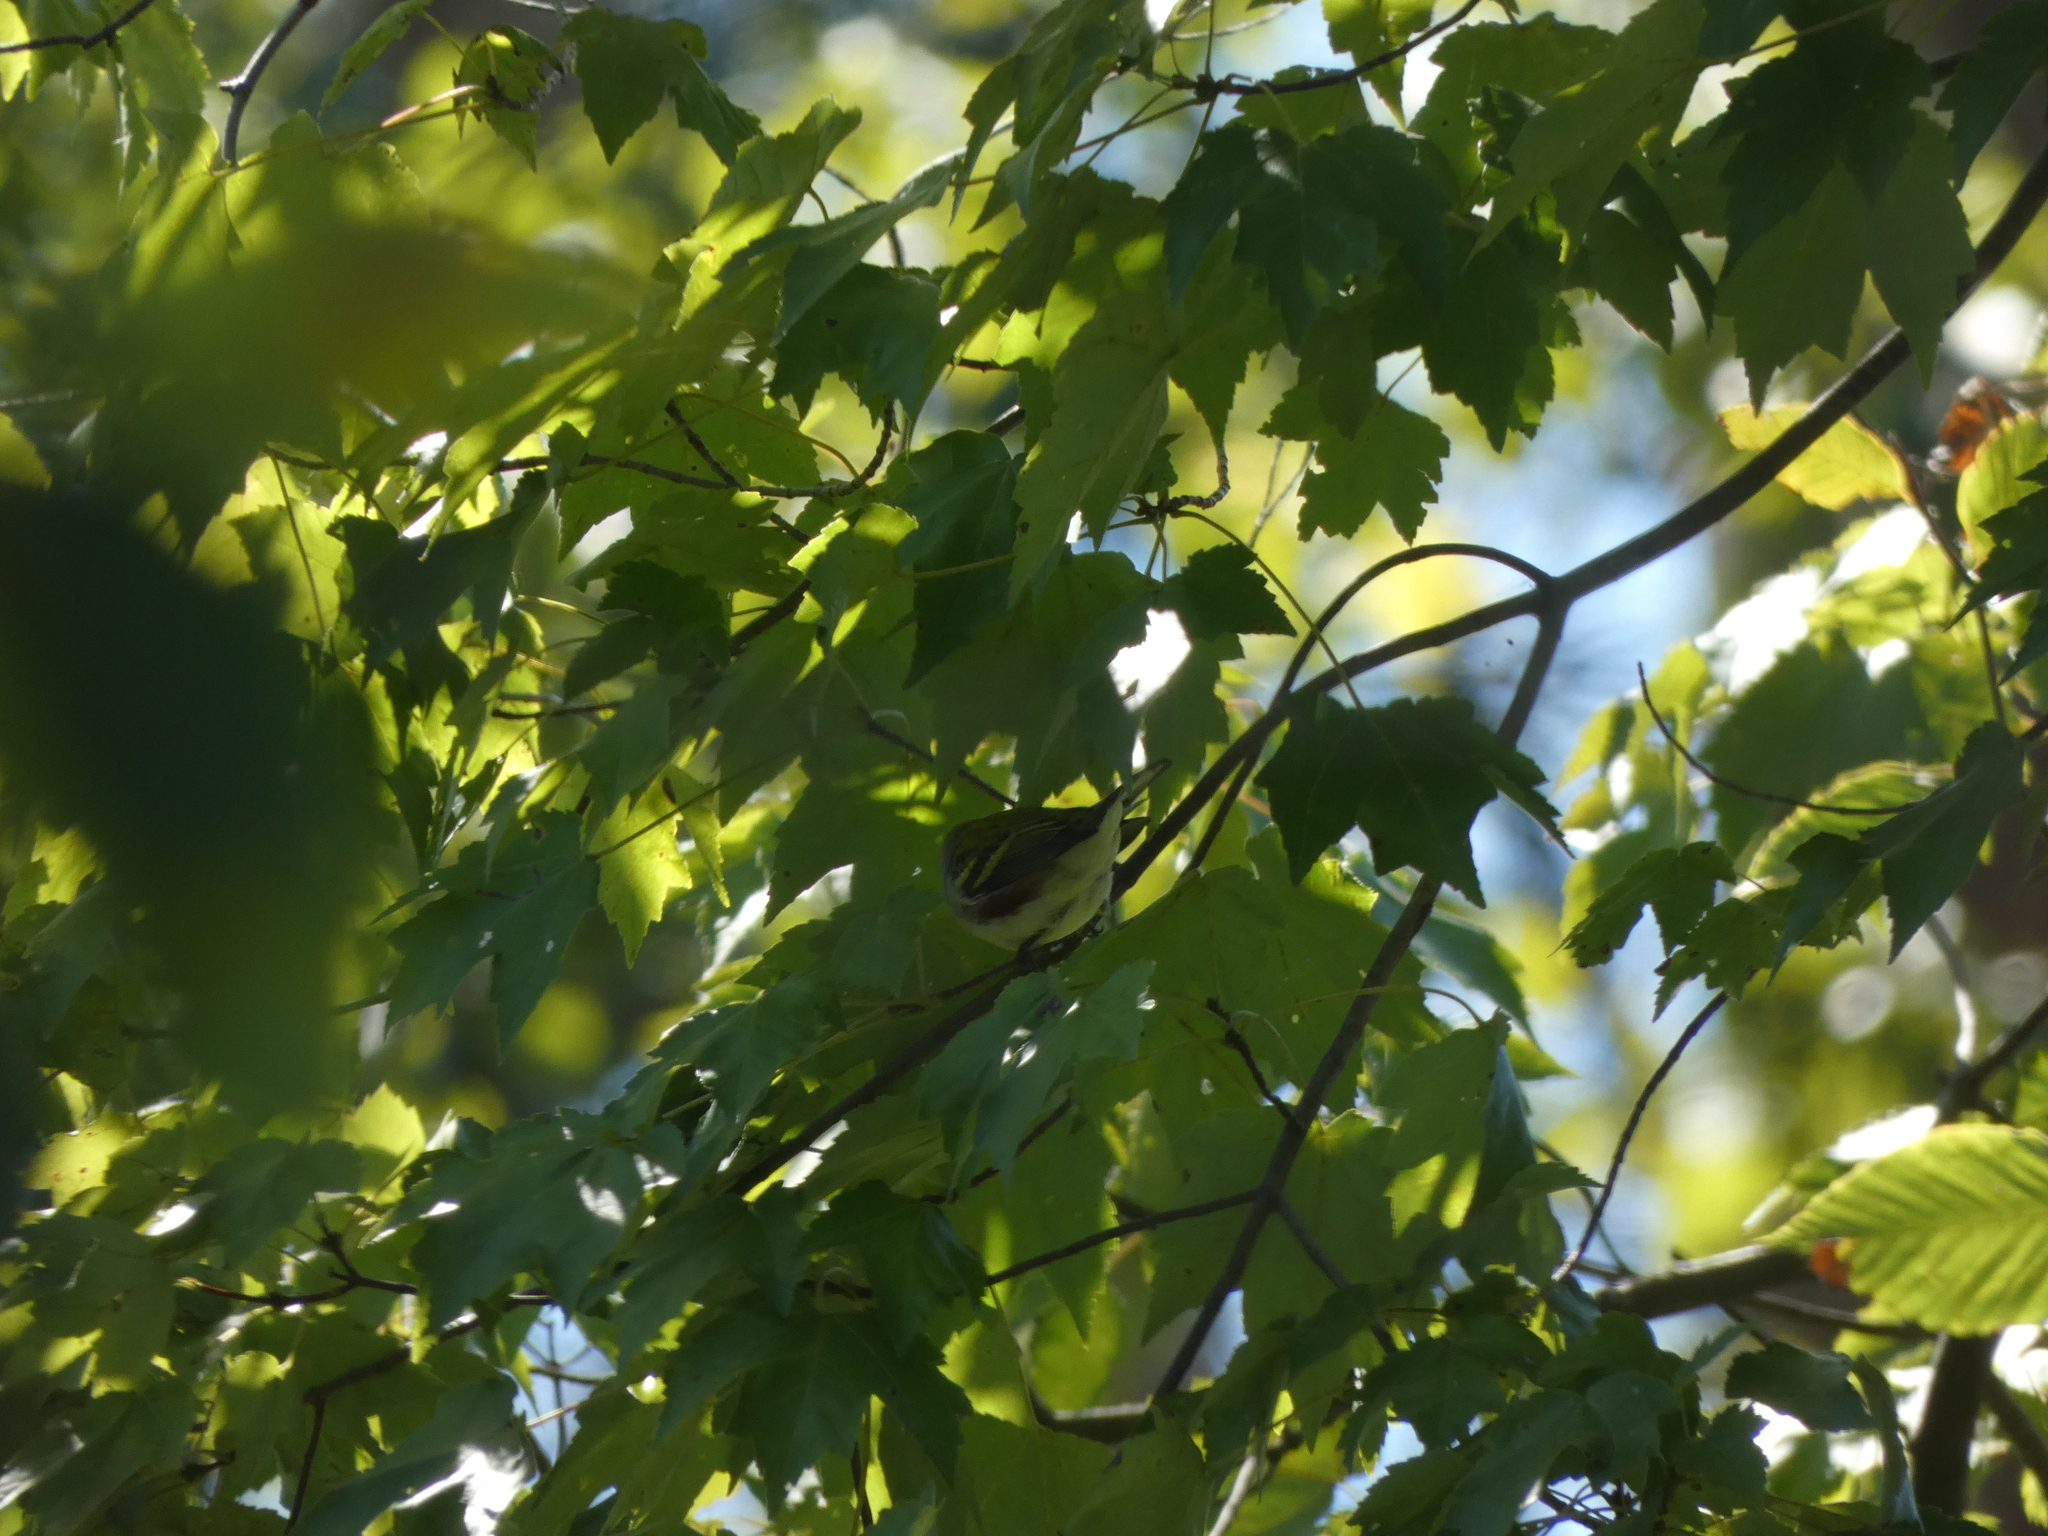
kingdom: Animalia
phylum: Chordata
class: Aves
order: Passeriformes
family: Parulidae
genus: Setophaga
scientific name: Setophaga pensylvanica
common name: Chestnut-sided warbler
